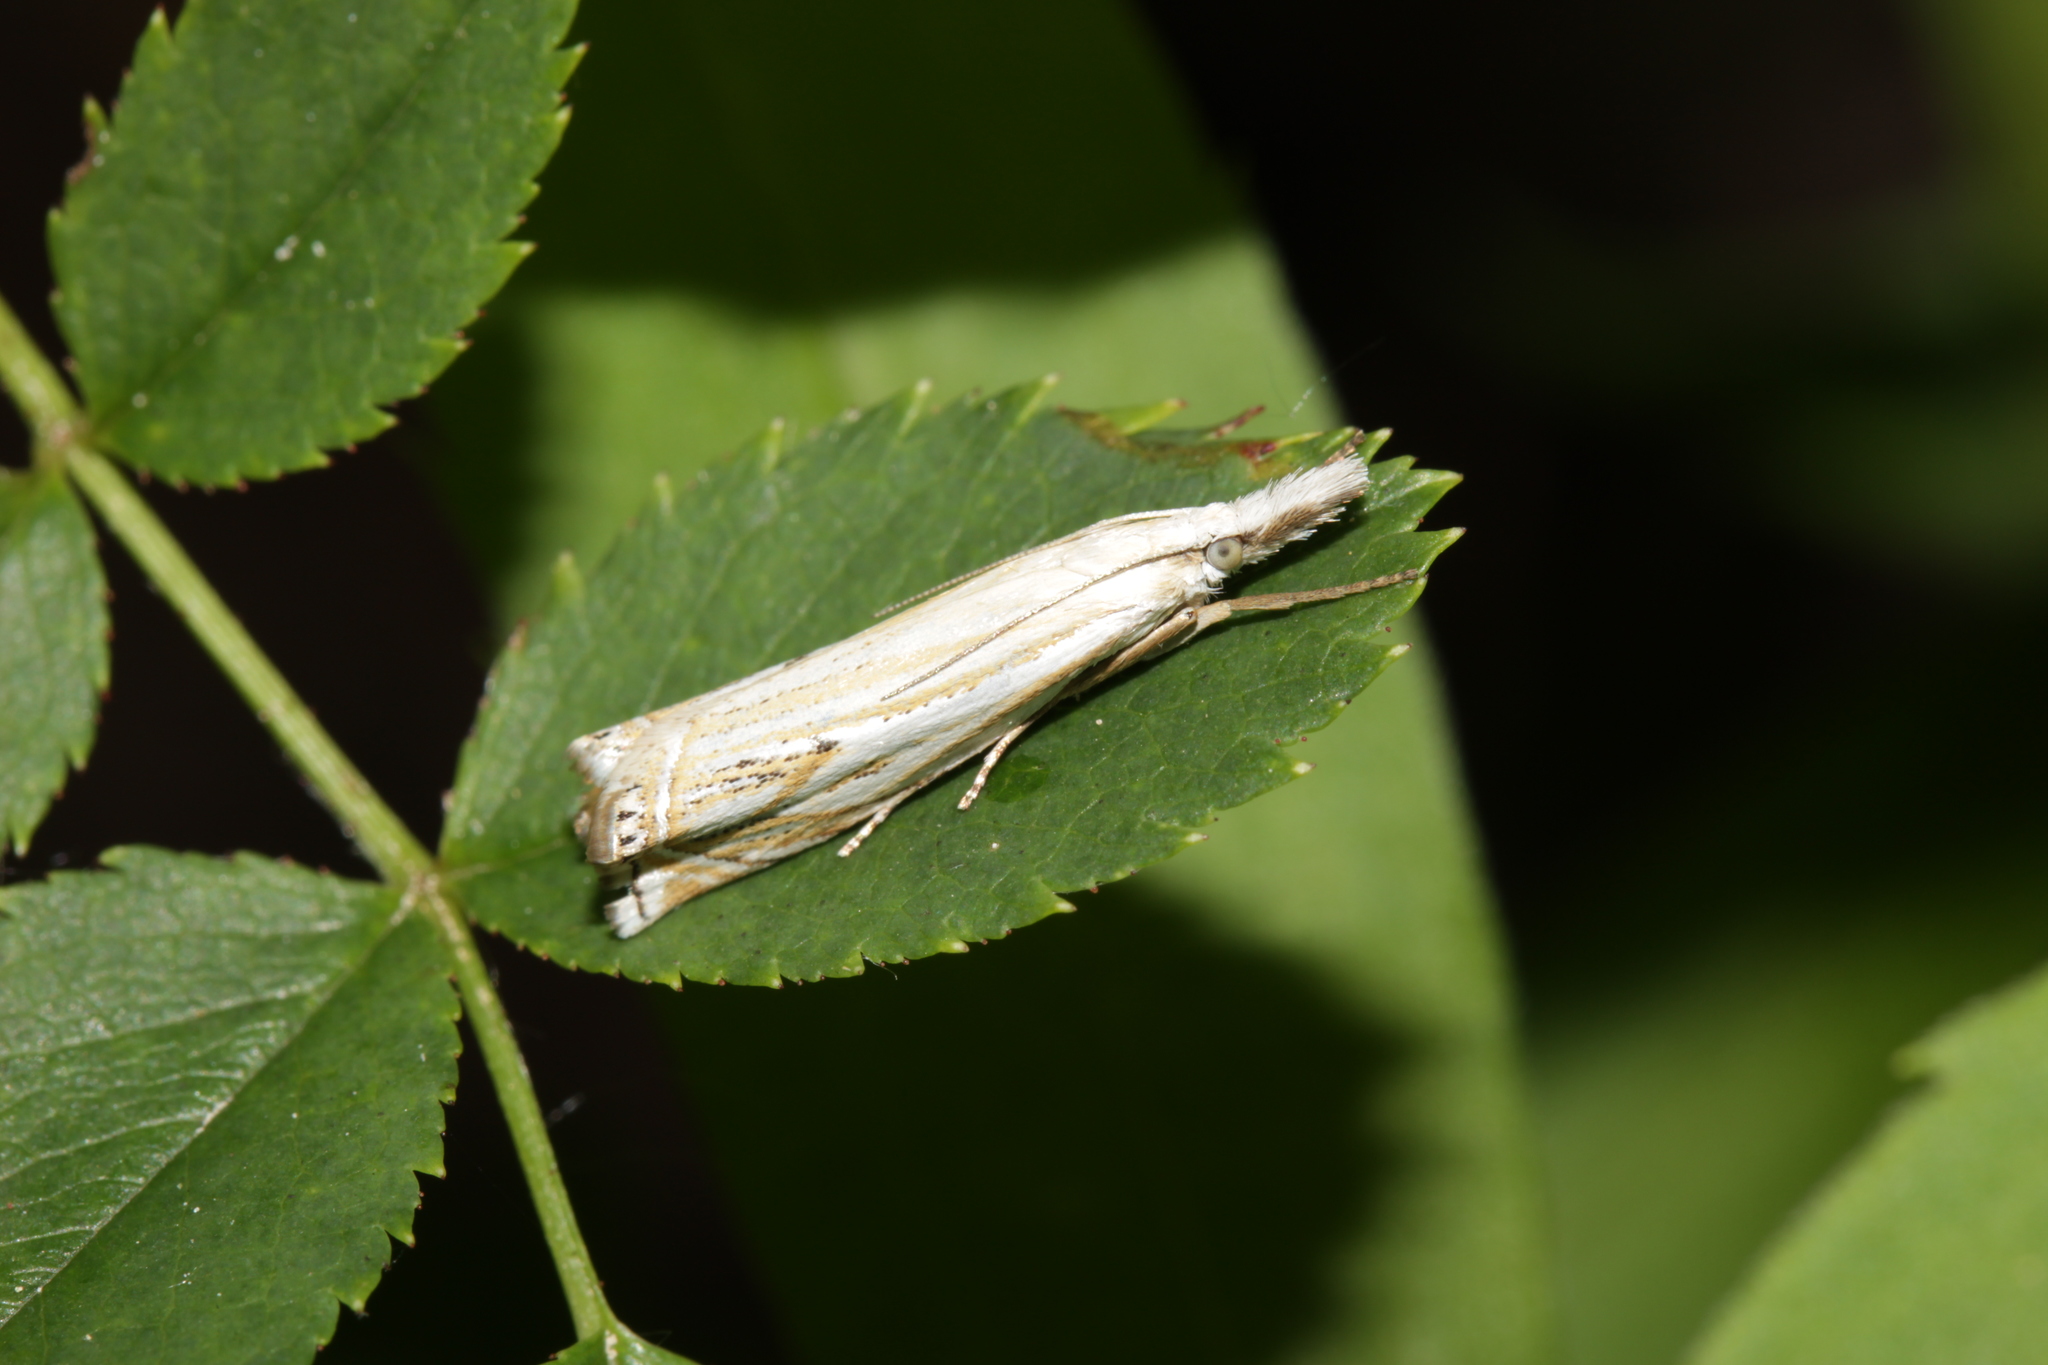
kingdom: Animalia
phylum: Arthropoda
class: Insecta
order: Lepidoptera
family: Crambidae
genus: Crambus
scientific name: Crambus nemorella
